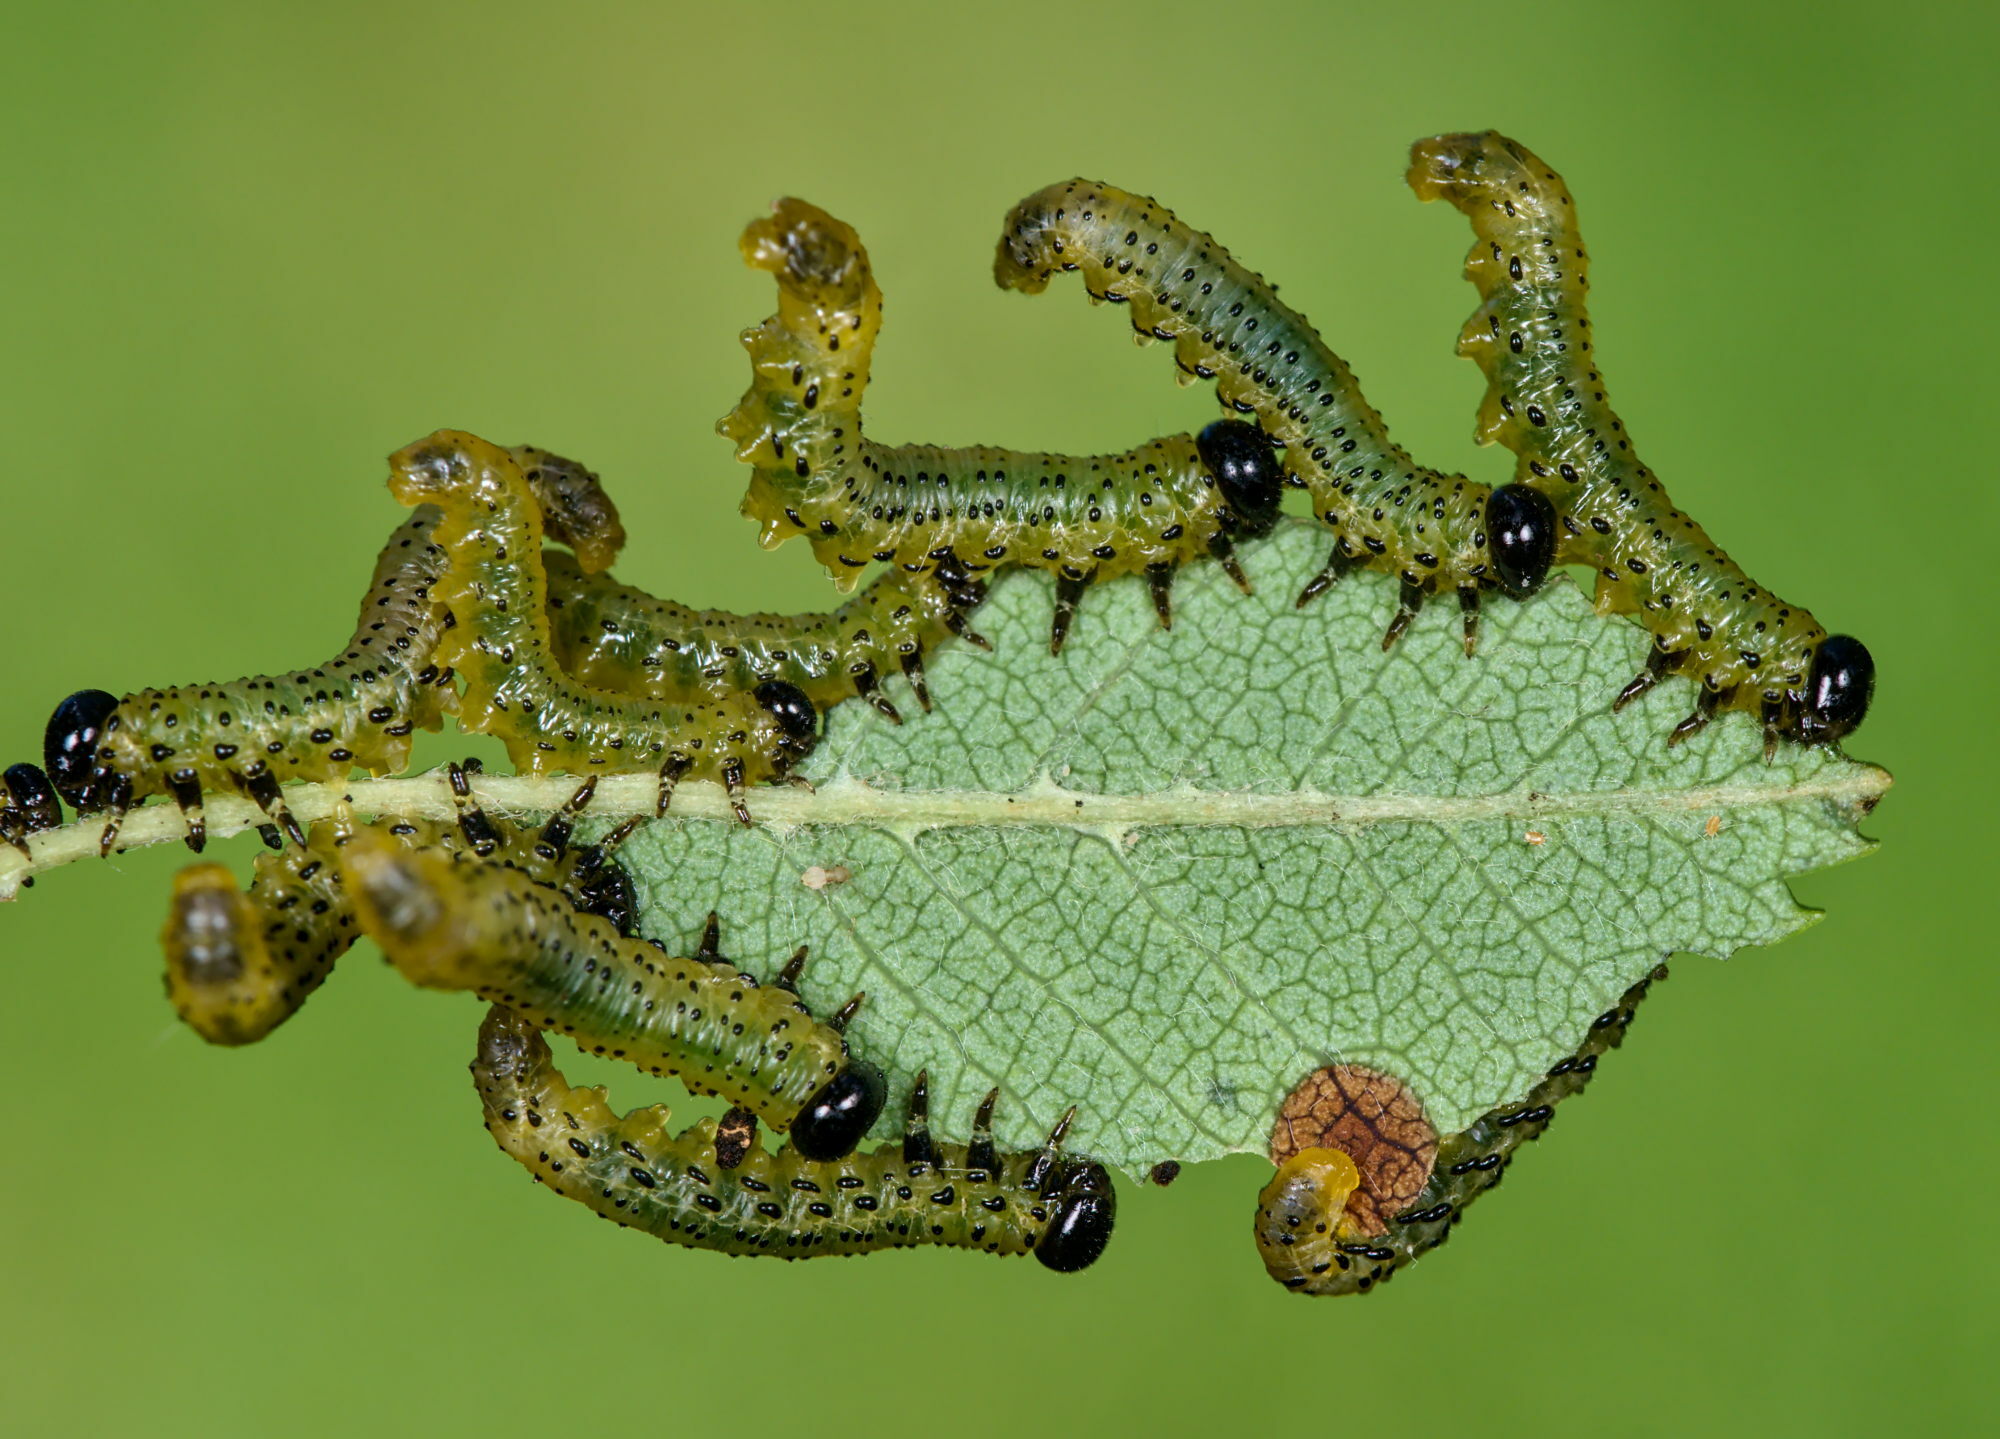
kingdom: Animalia
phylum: Arthropoda
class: Insecta
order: Hymenoptera
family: Tenthredinidae
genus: Pristiphora
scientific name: Pristiphora geniculata
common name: Mountain-ash sawfly
